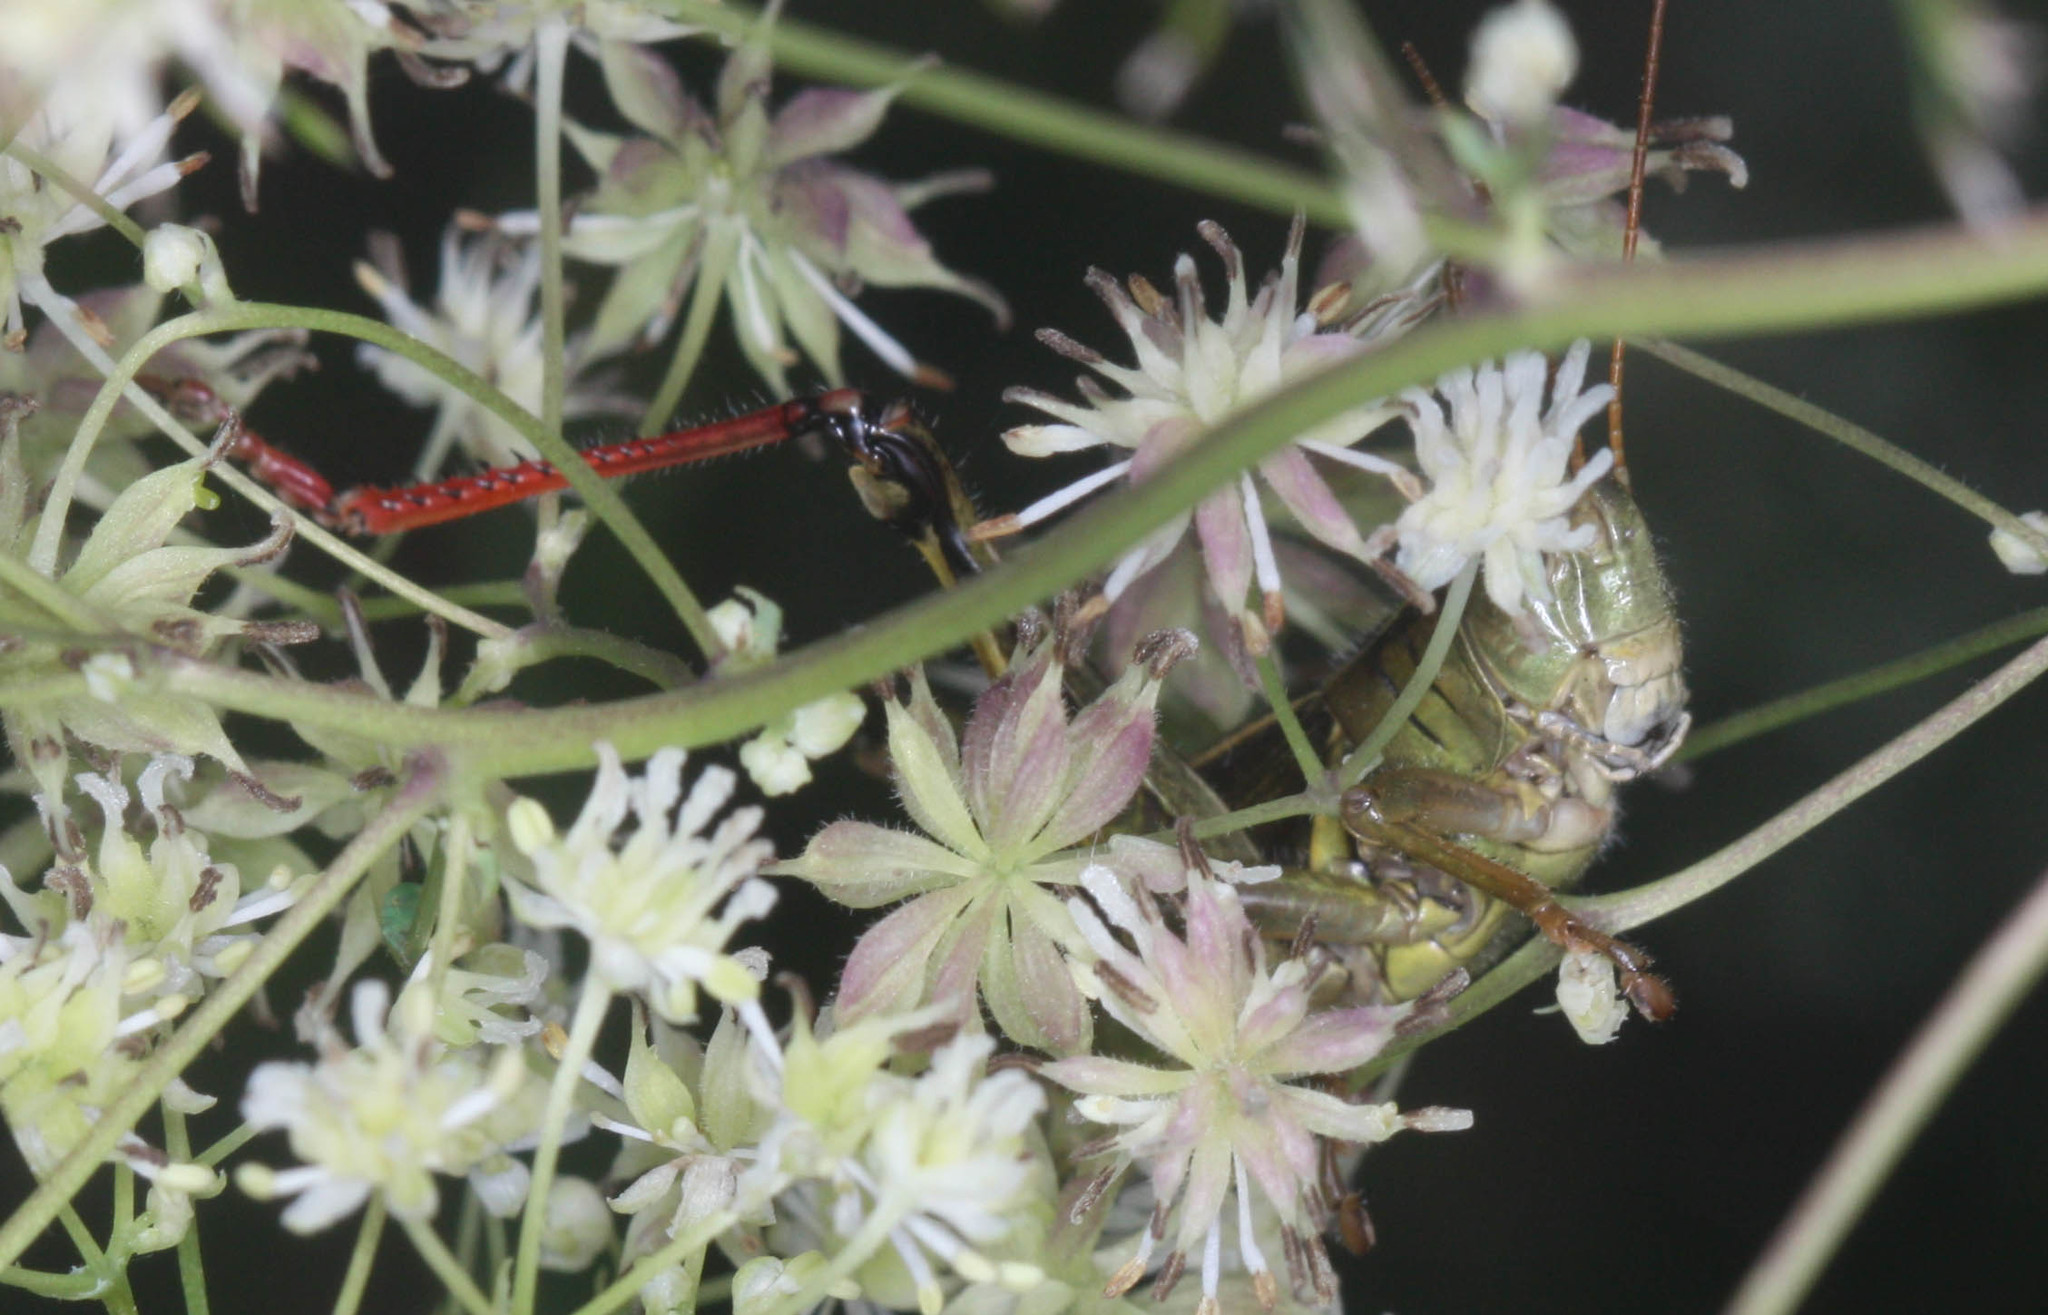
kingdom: Animalia
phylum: Arthropoda
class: Insecta
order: Orthoptera
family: Acrididae
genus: Melanoplus
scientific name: Melanoplus bivittatus
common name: Two-striped grasshopper
